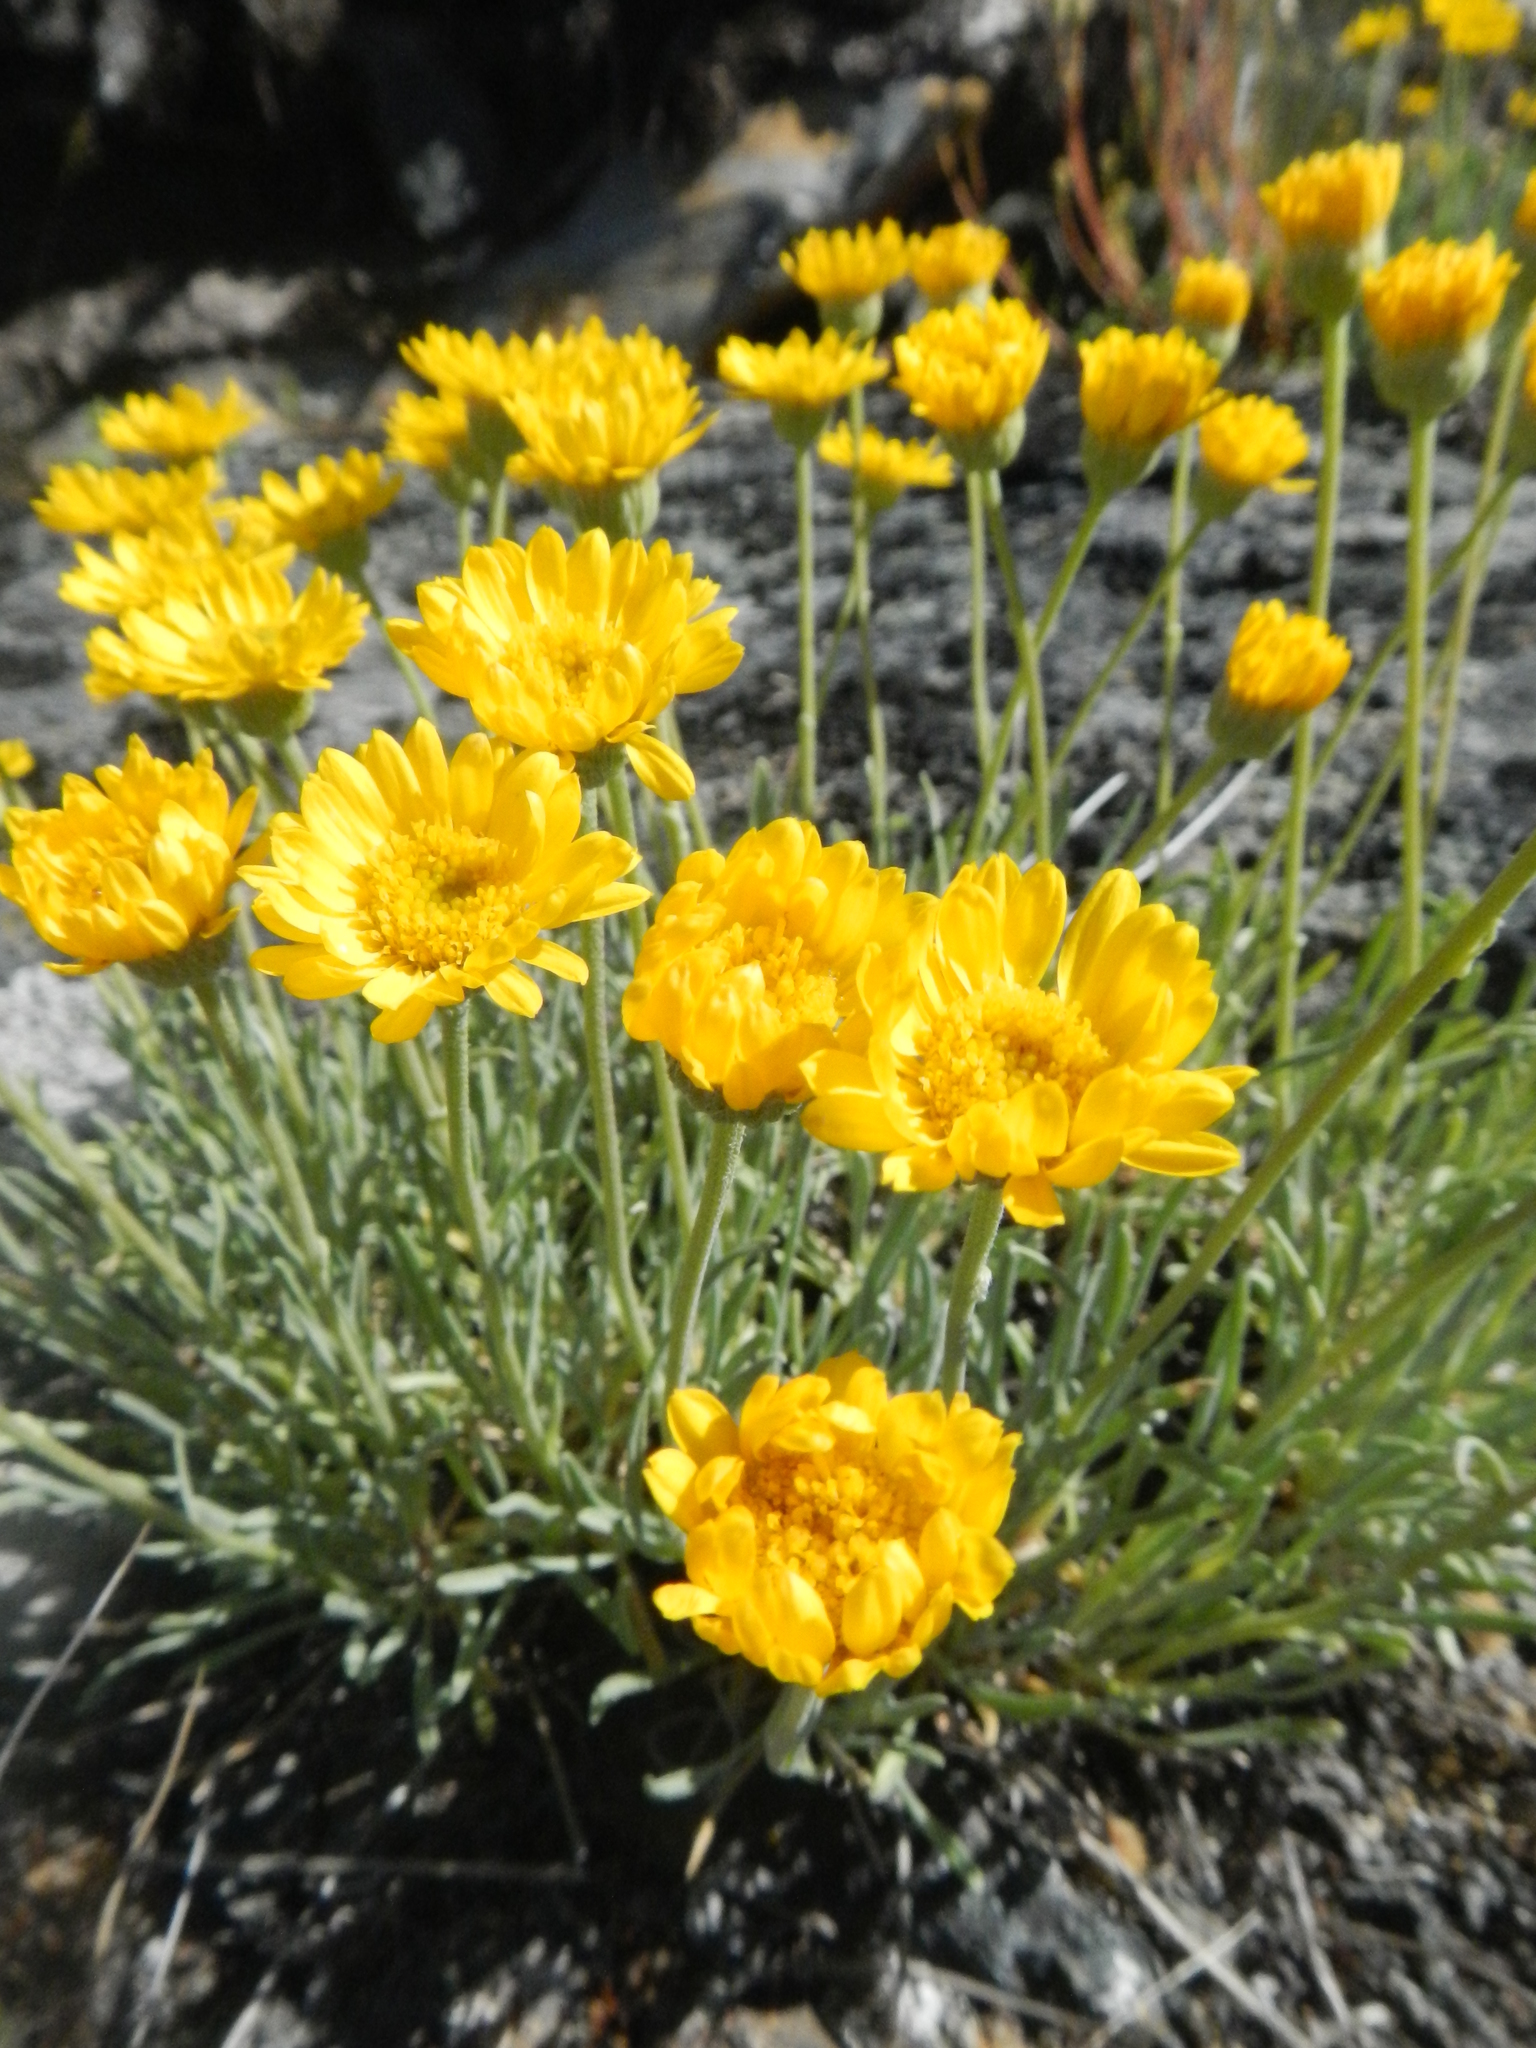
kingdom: Plantae
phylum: Tracheophyta
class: Magnoliopsida
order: Asterales
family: Asteraceae
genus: Erigeron
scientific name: Erigeron linearis
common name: Desert yellow fleabane
